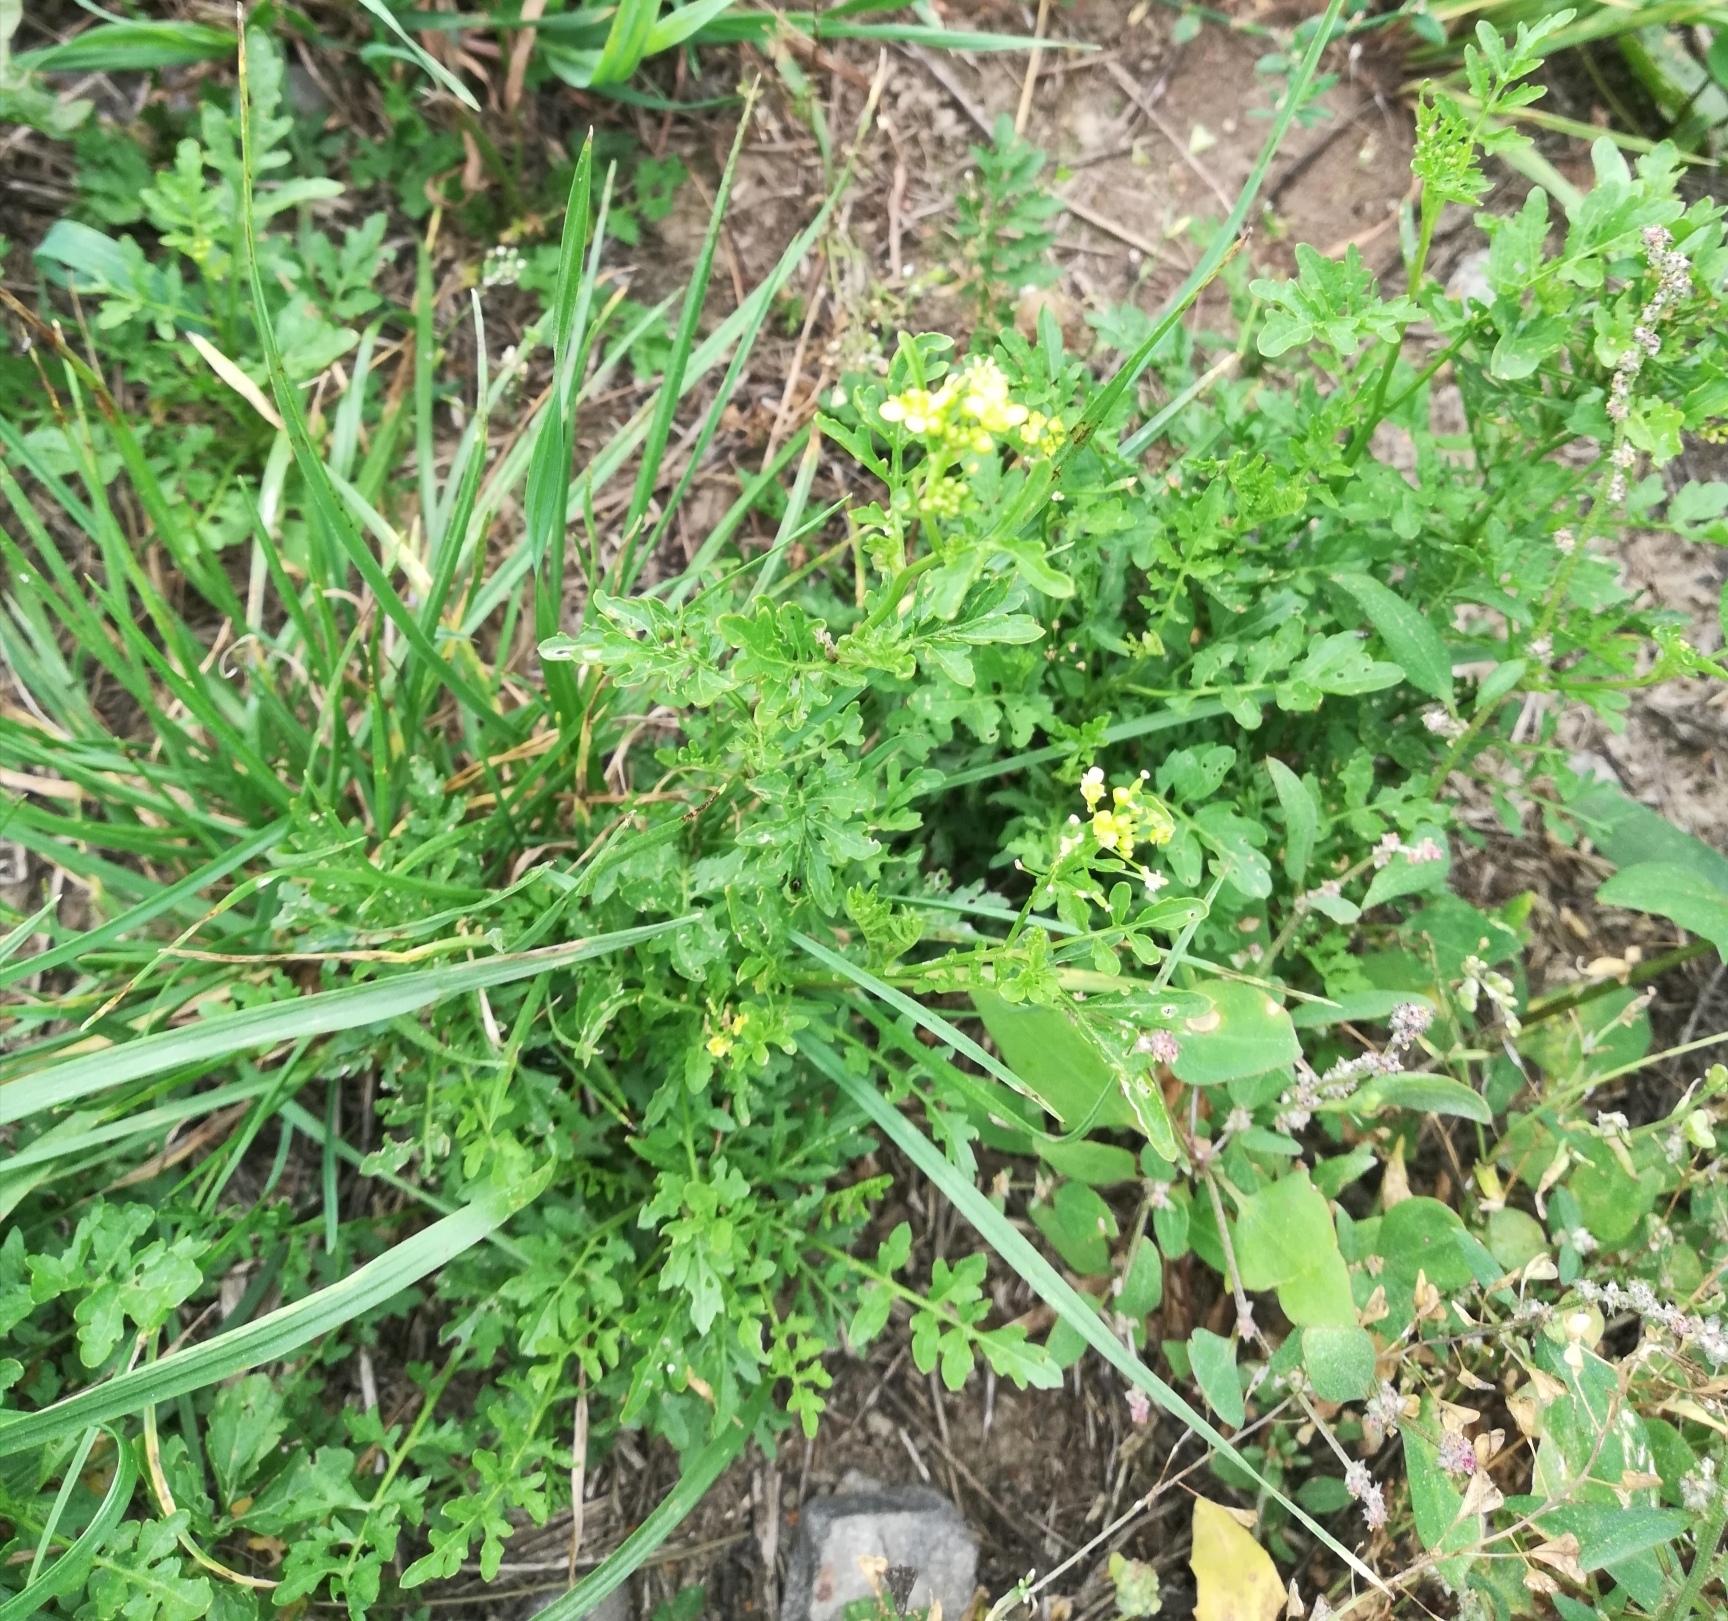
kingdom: Plantae
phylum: Tracheophyta
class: Magnoliopsida
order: Brassicales
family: Brassicaceae
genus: Rorippa
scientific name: Rorippa palustris
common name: Marsh yellow-cress
